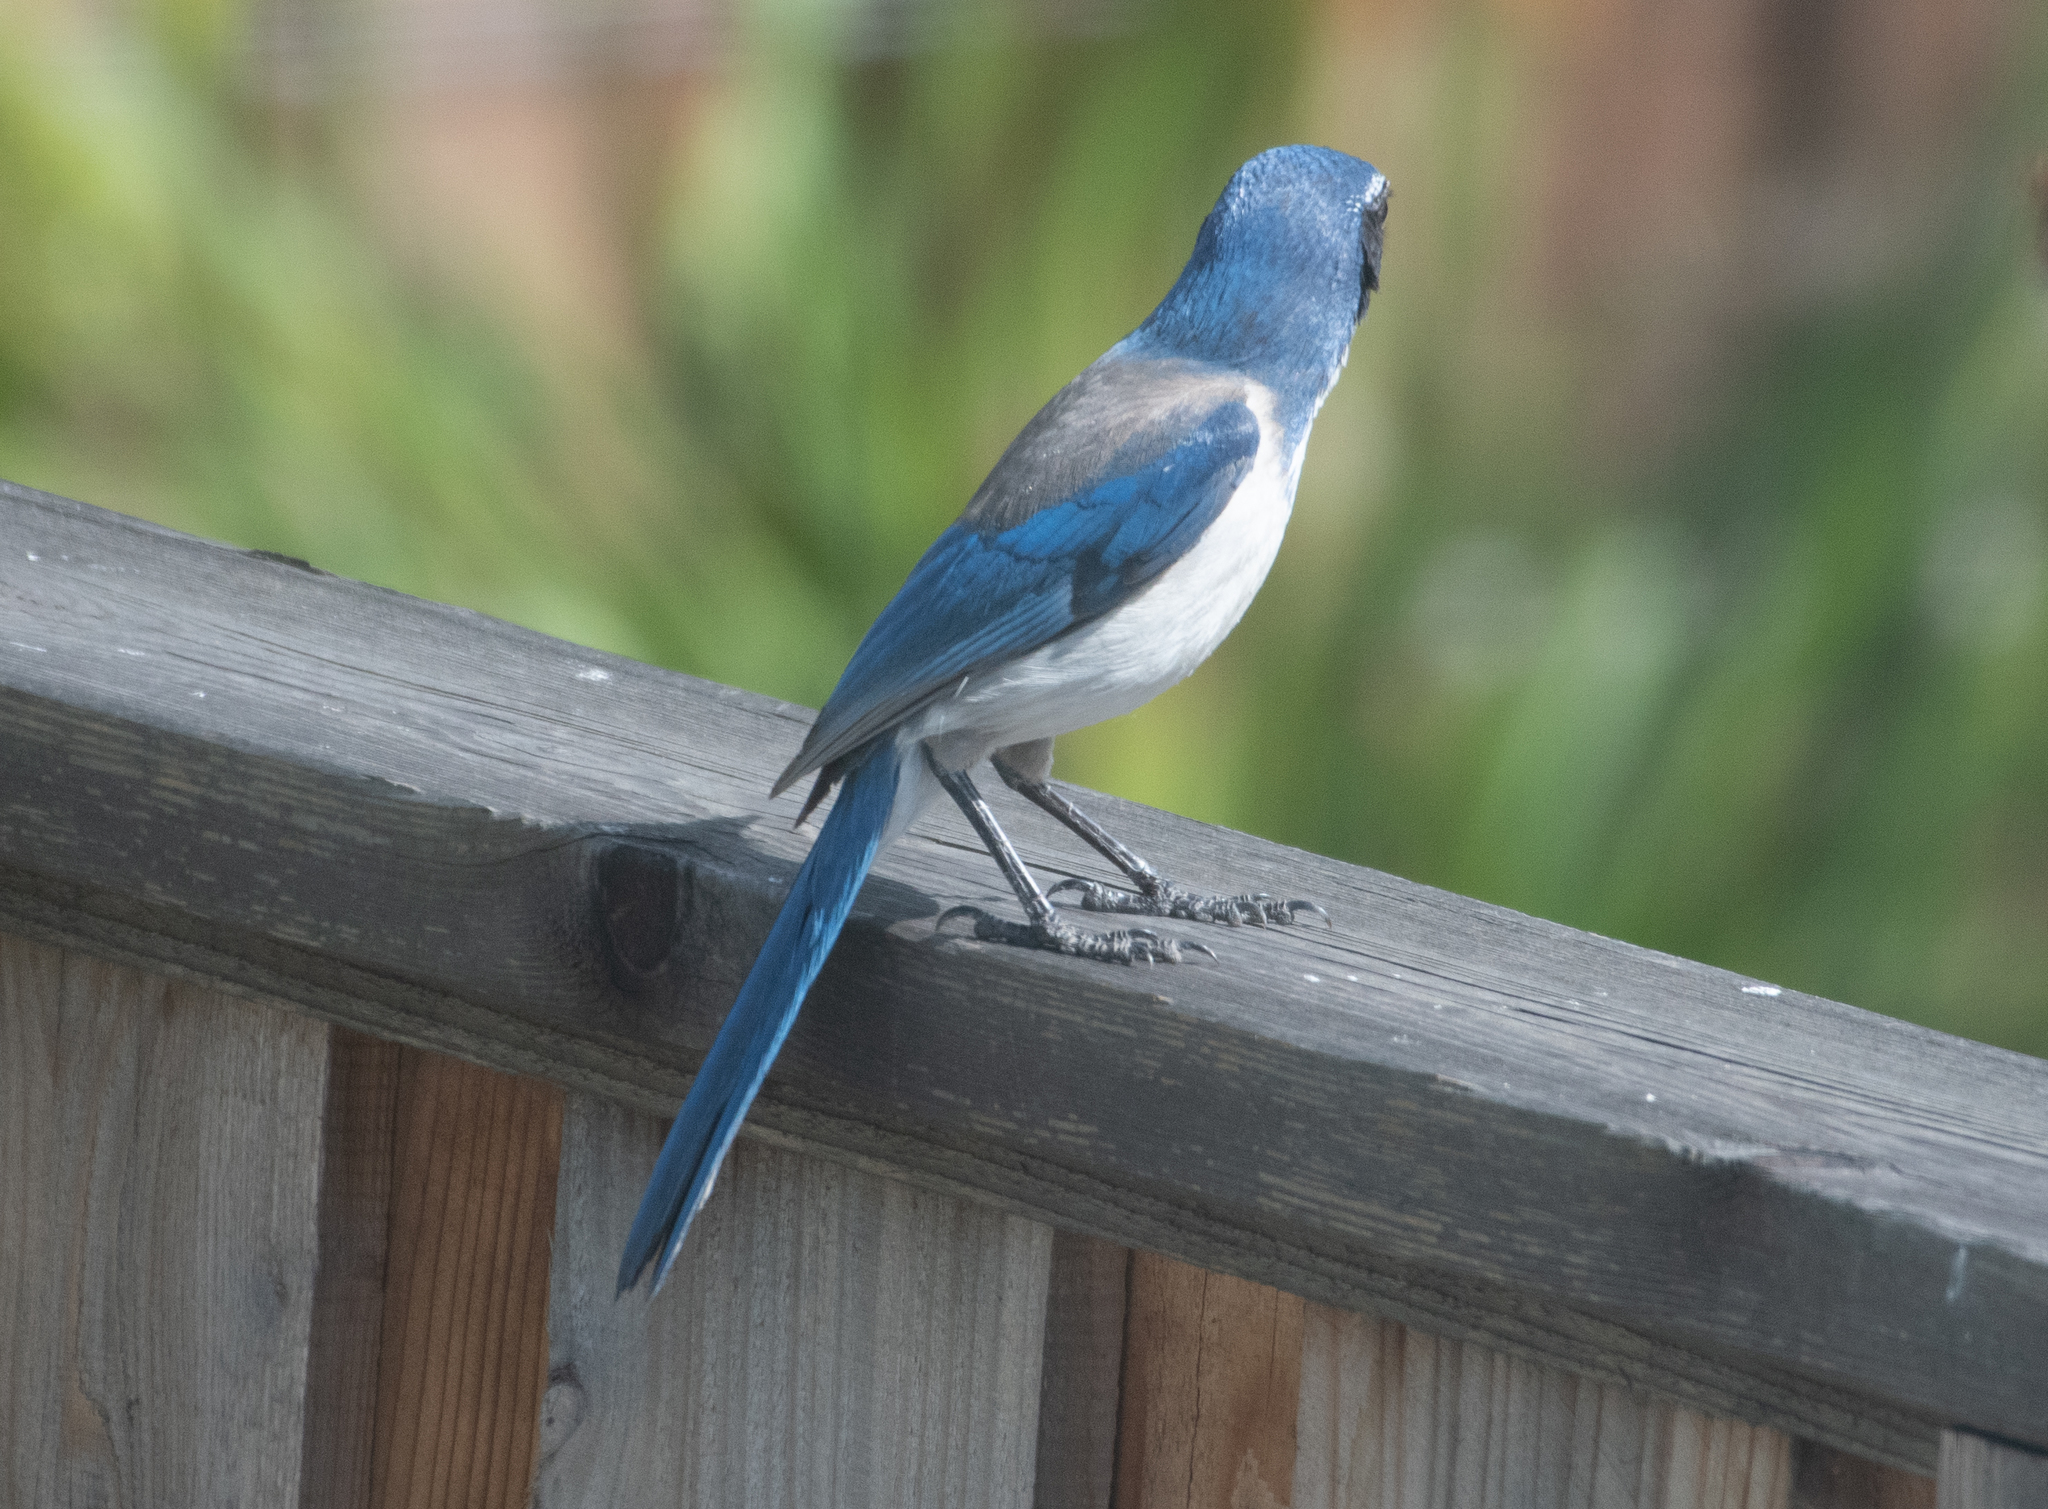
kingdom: Animalia
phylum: Chordata
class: Aves
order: Passeriformes
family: Corvidae
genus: Aphelocoma
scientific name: Aphelocoma californica
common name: California scrub-jay
